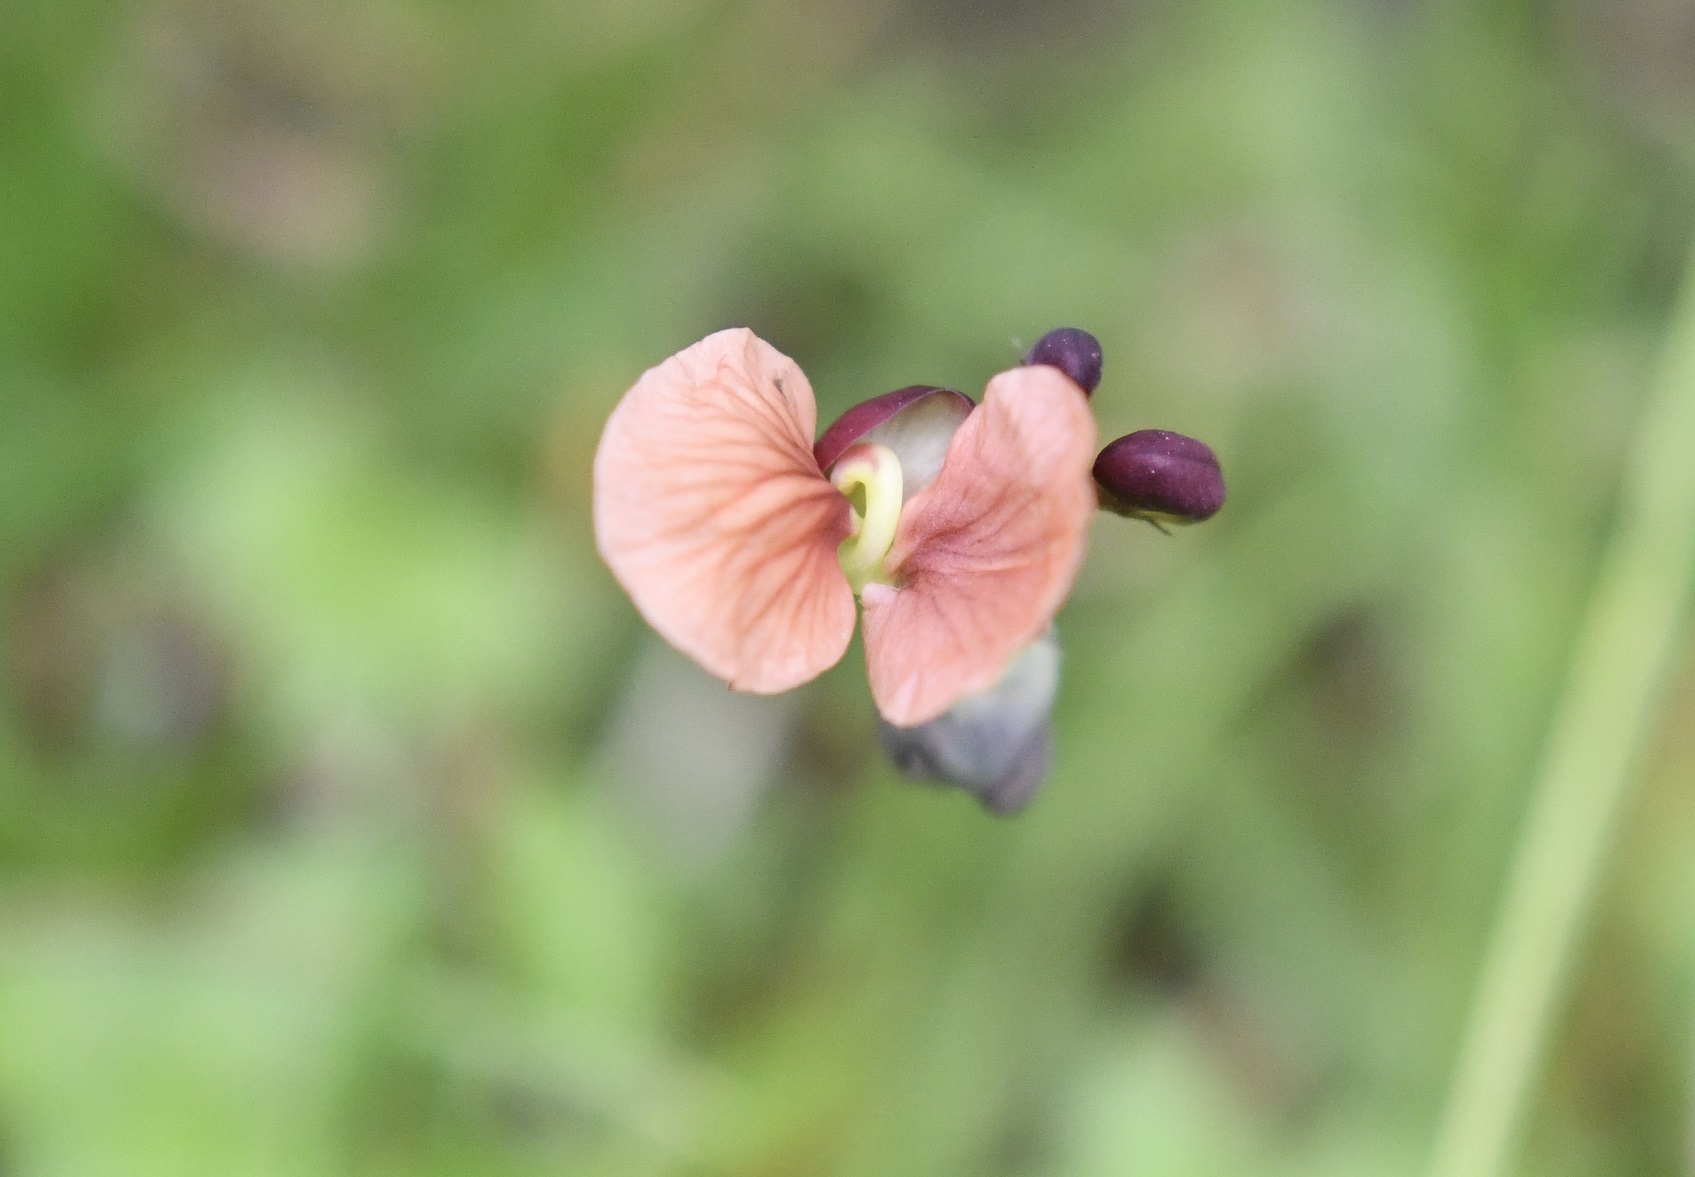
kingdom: Plantae
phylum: Tracheophyta
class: Magnoliopsida
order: Fabales
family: Fabaceae
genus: Macroptilium
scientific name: Macroptilium gibbosifolium
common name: Variableleaf bushbean
